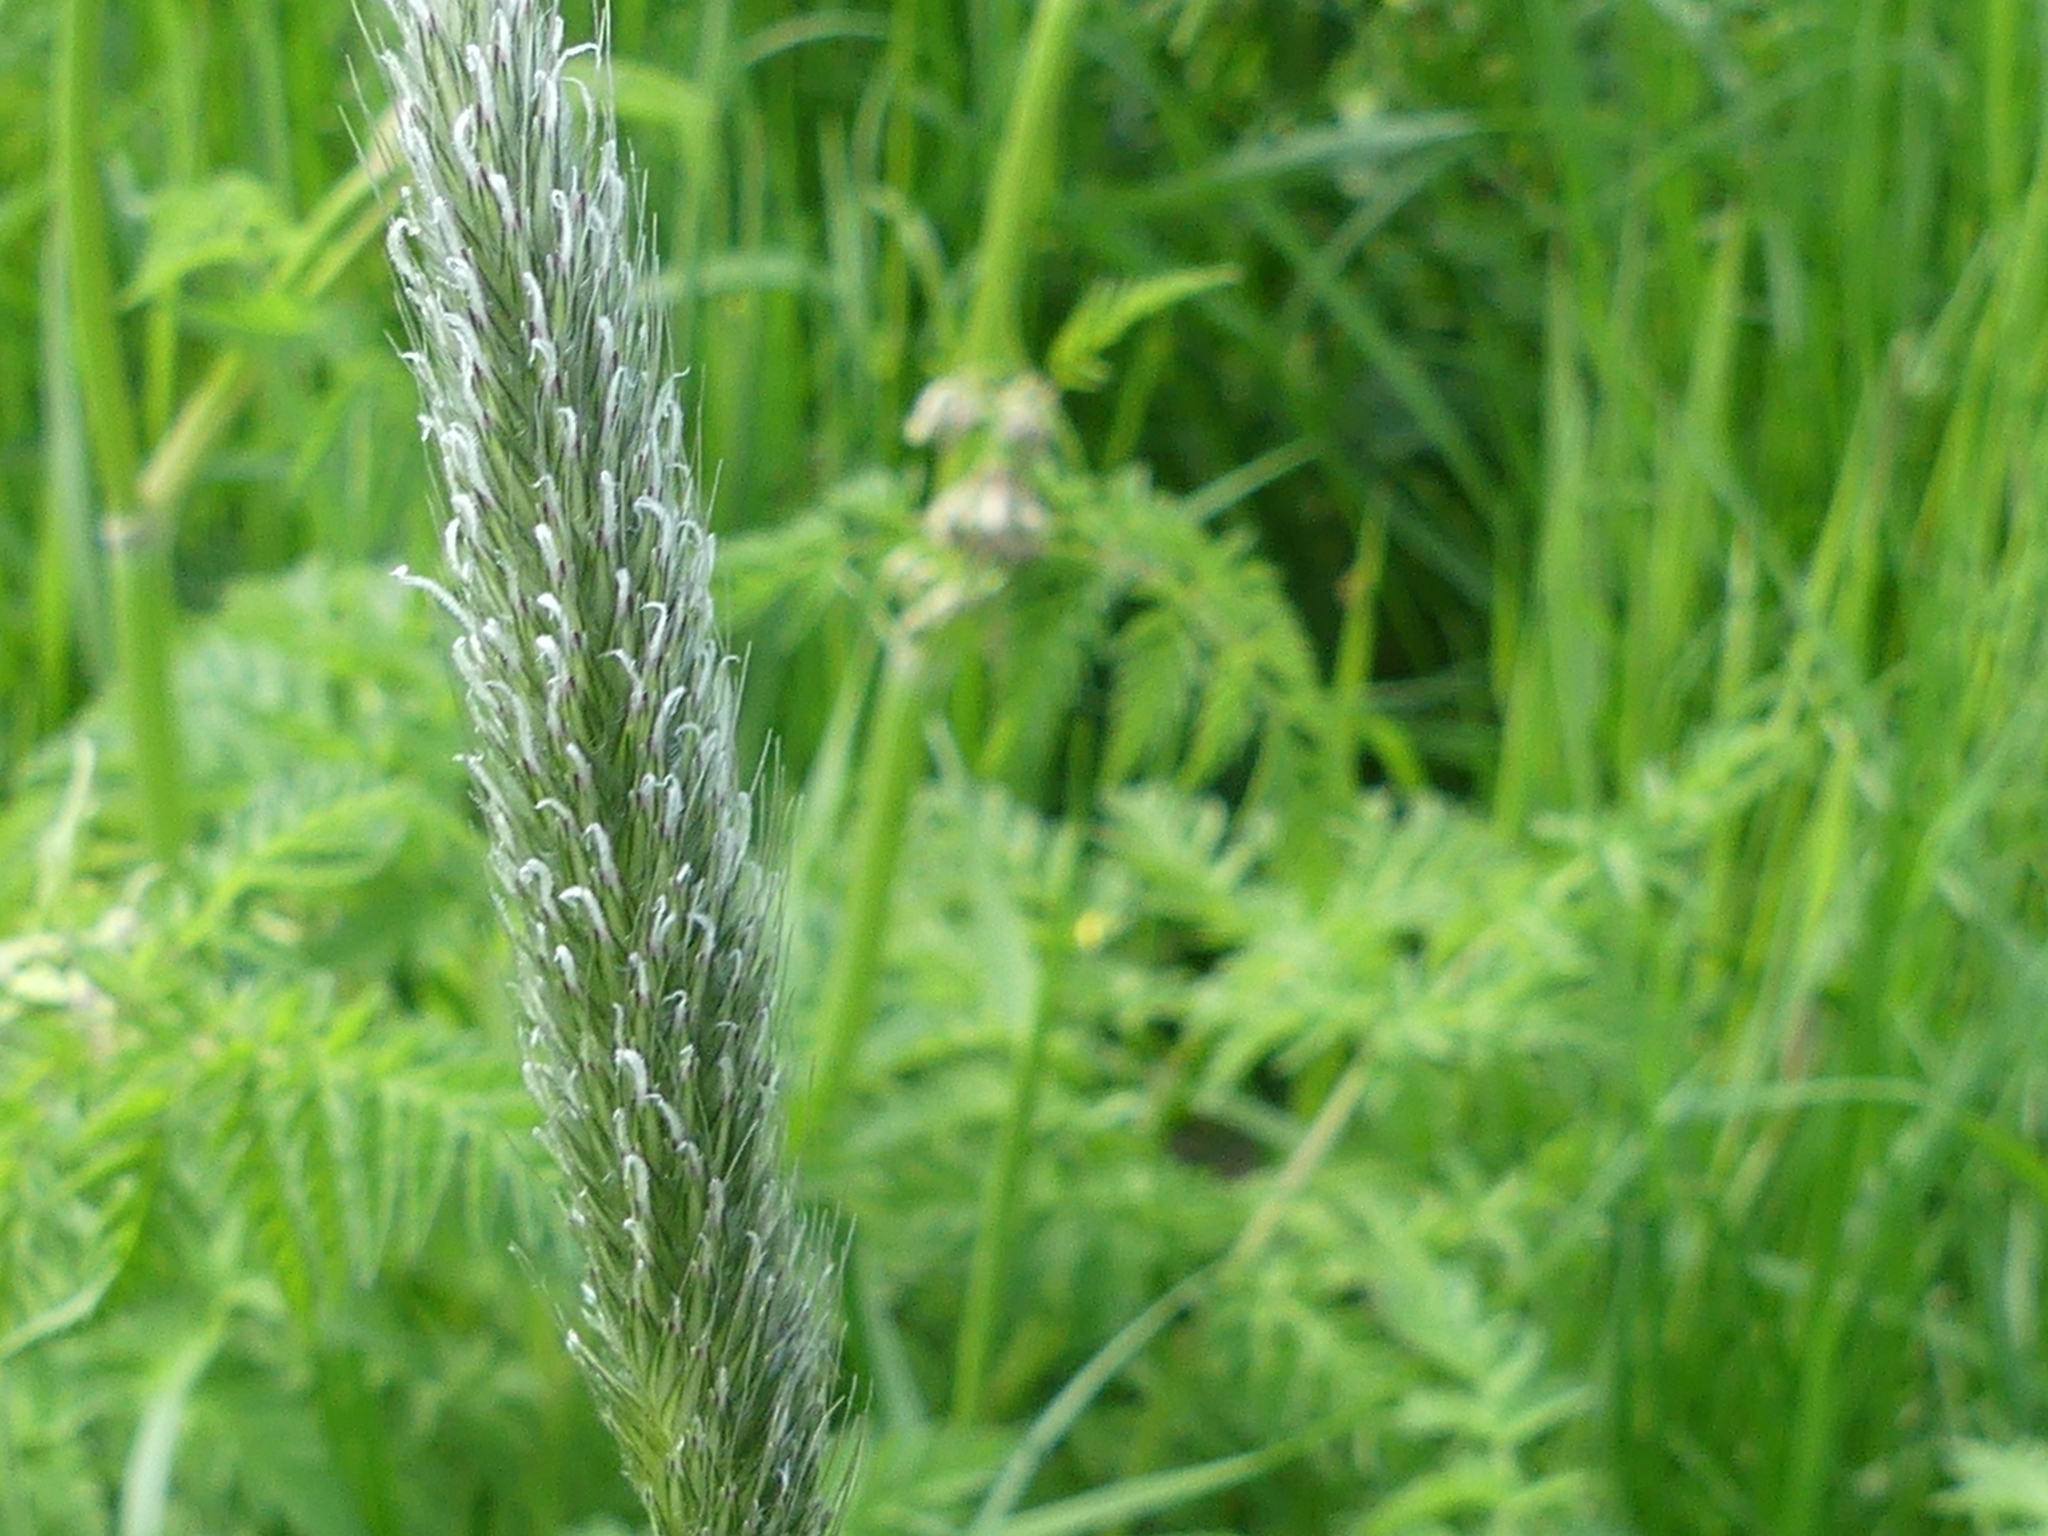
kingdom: Plantae
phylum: Tracheophyta
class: Liliopsida
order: Poales
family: Poaceae
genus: Alopecurus
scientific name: Alopecurus pratensis
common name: Meadow foxtail
